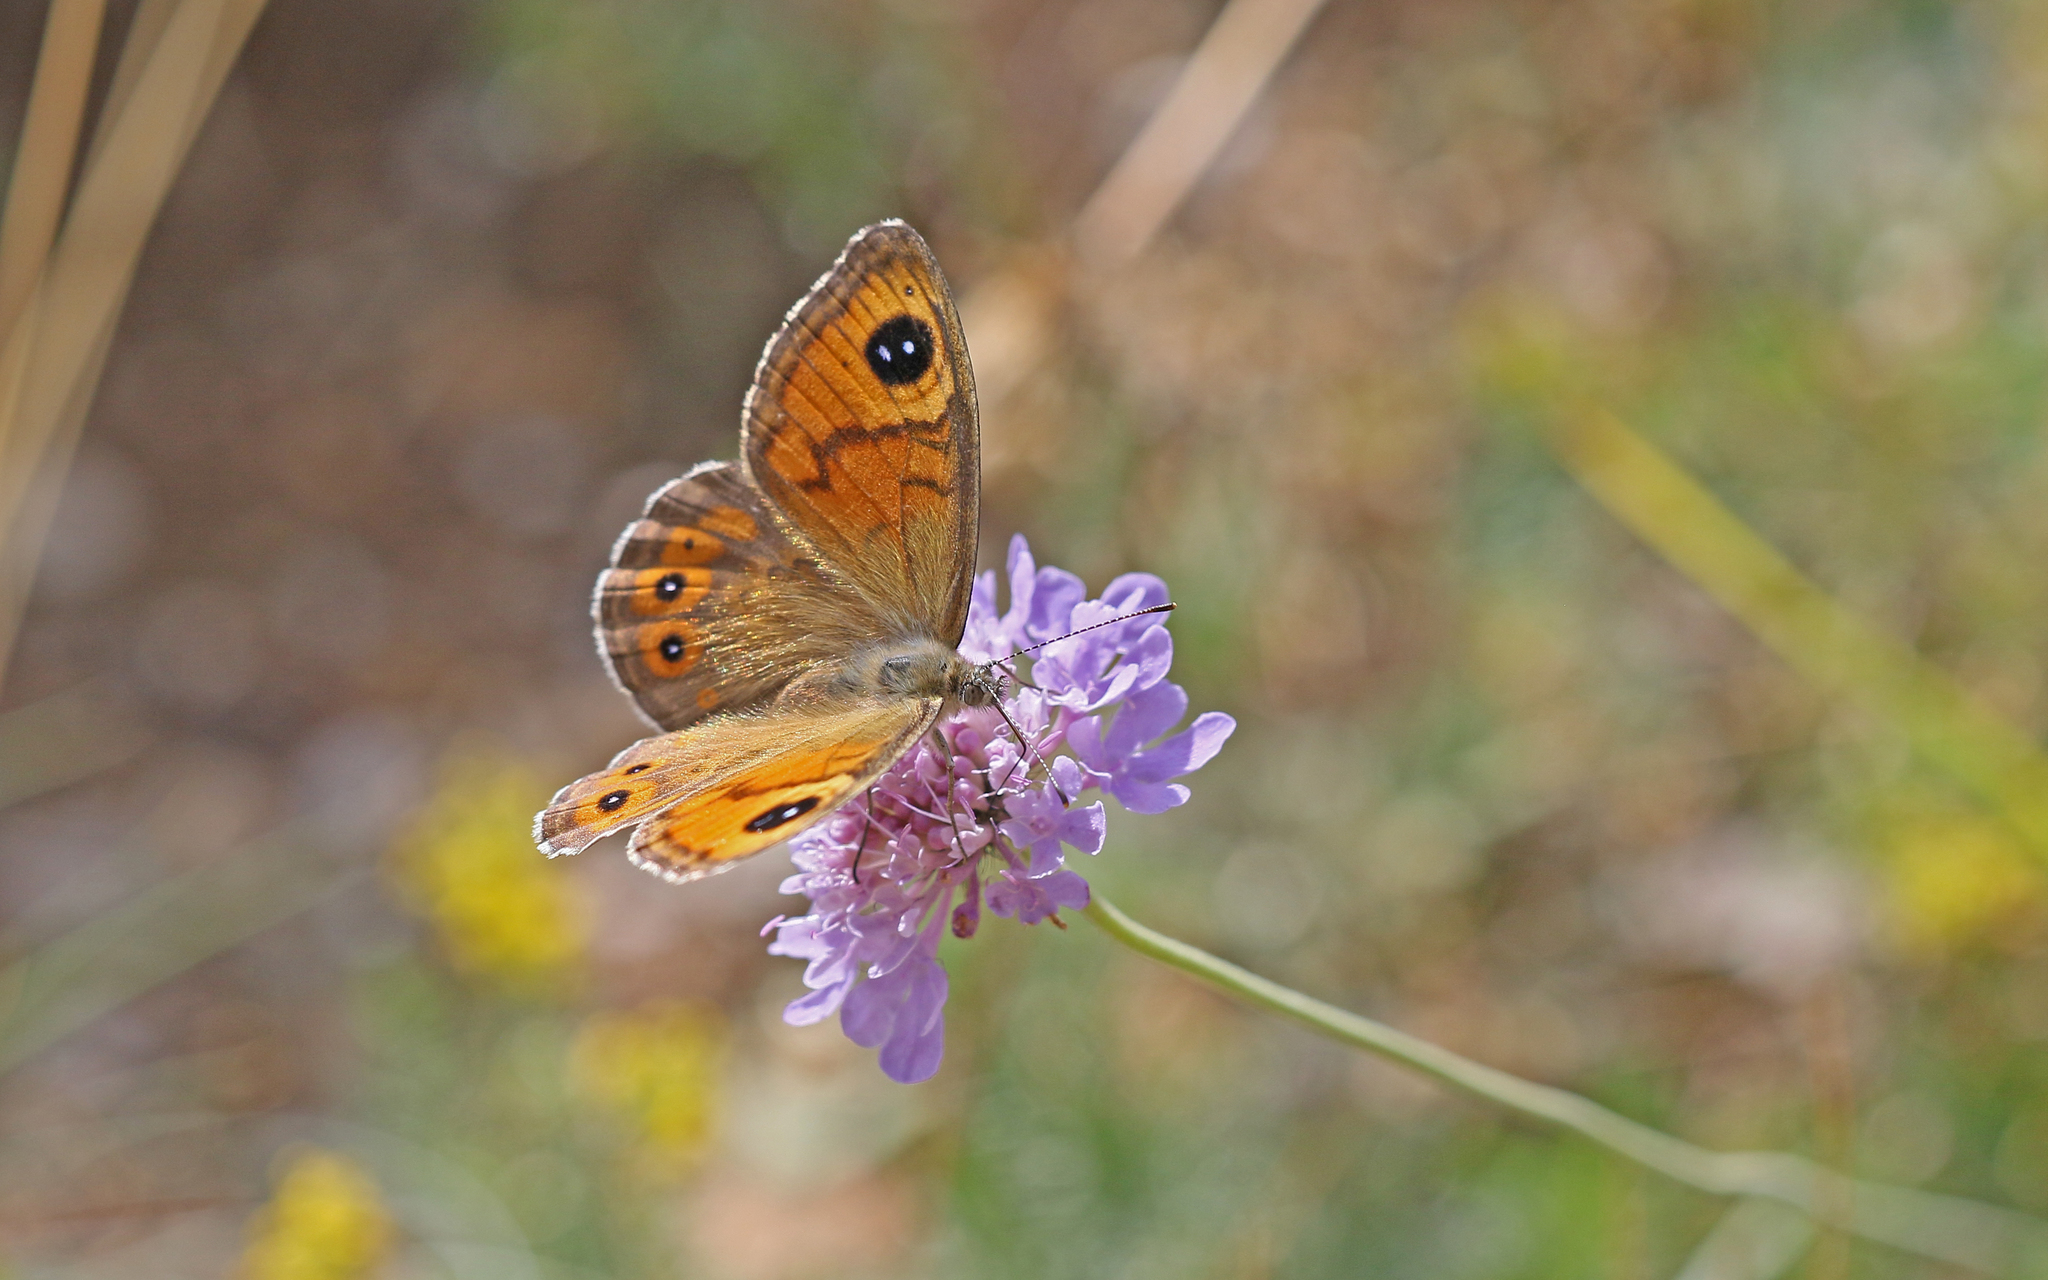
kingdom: Animalia
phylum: Arthropoda
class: Insecta
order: Lepidoptera
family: Nymphalidae
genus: Pararge
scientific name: Pararge Lasiommata maera
